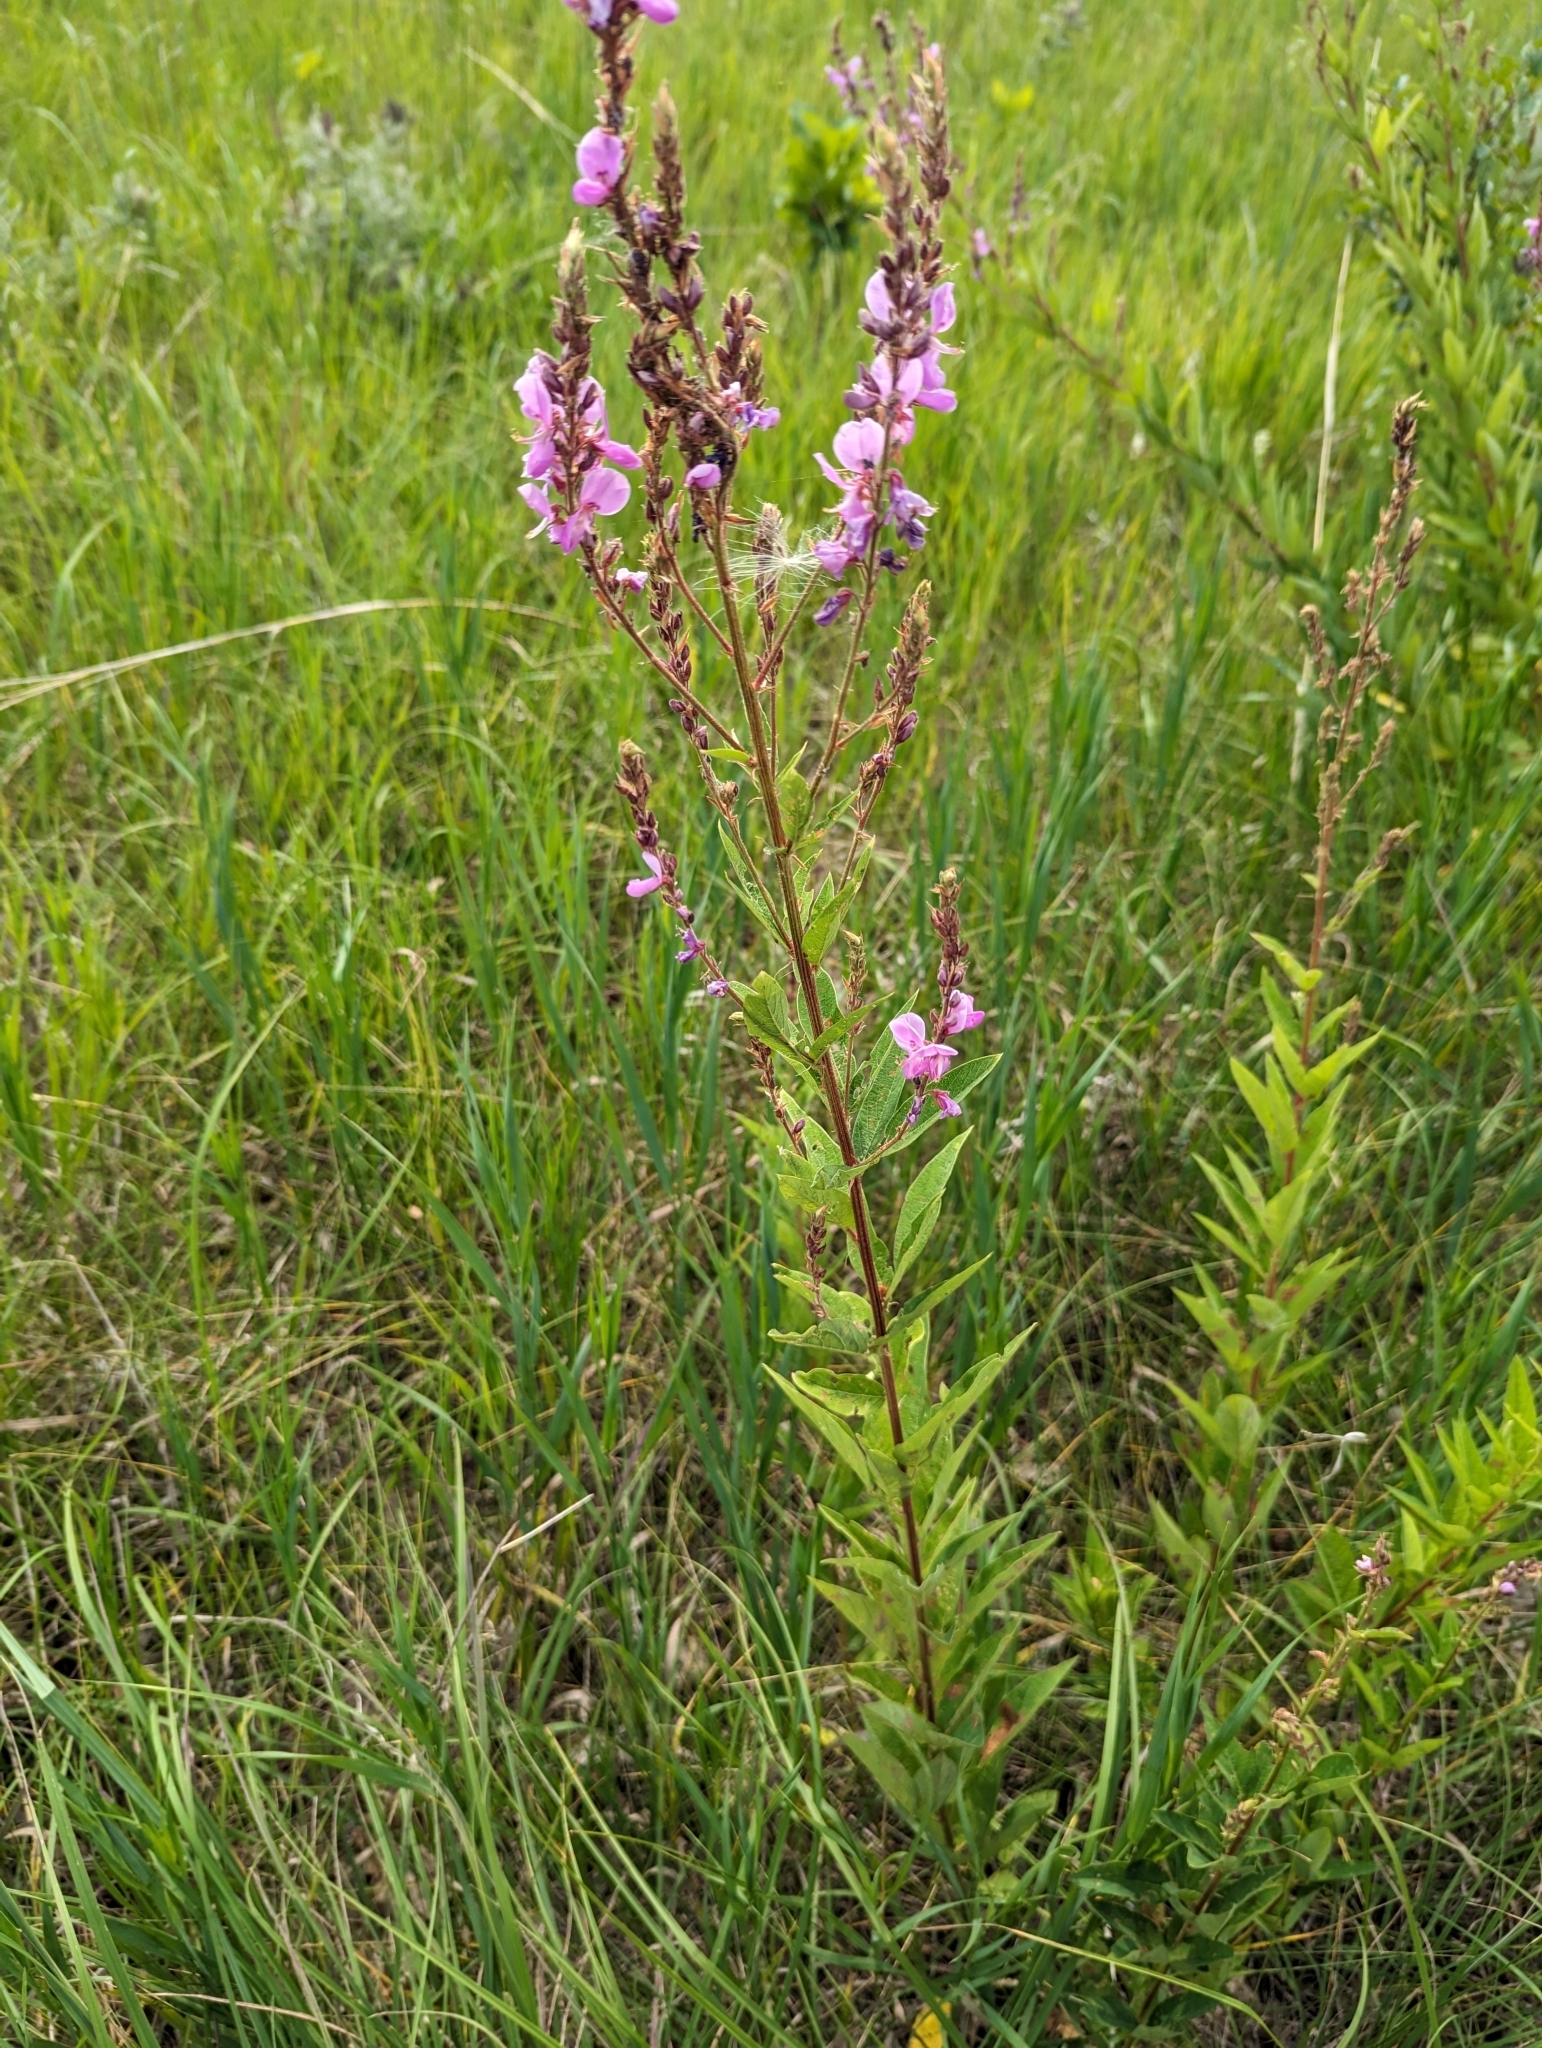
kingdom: Plantae
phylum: Tracheophyta
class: Magnoliopsida
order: Fabales
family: Fabaceae
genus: Desmodium
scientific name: Desmodium canadense
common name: Canada tick-trefoil
